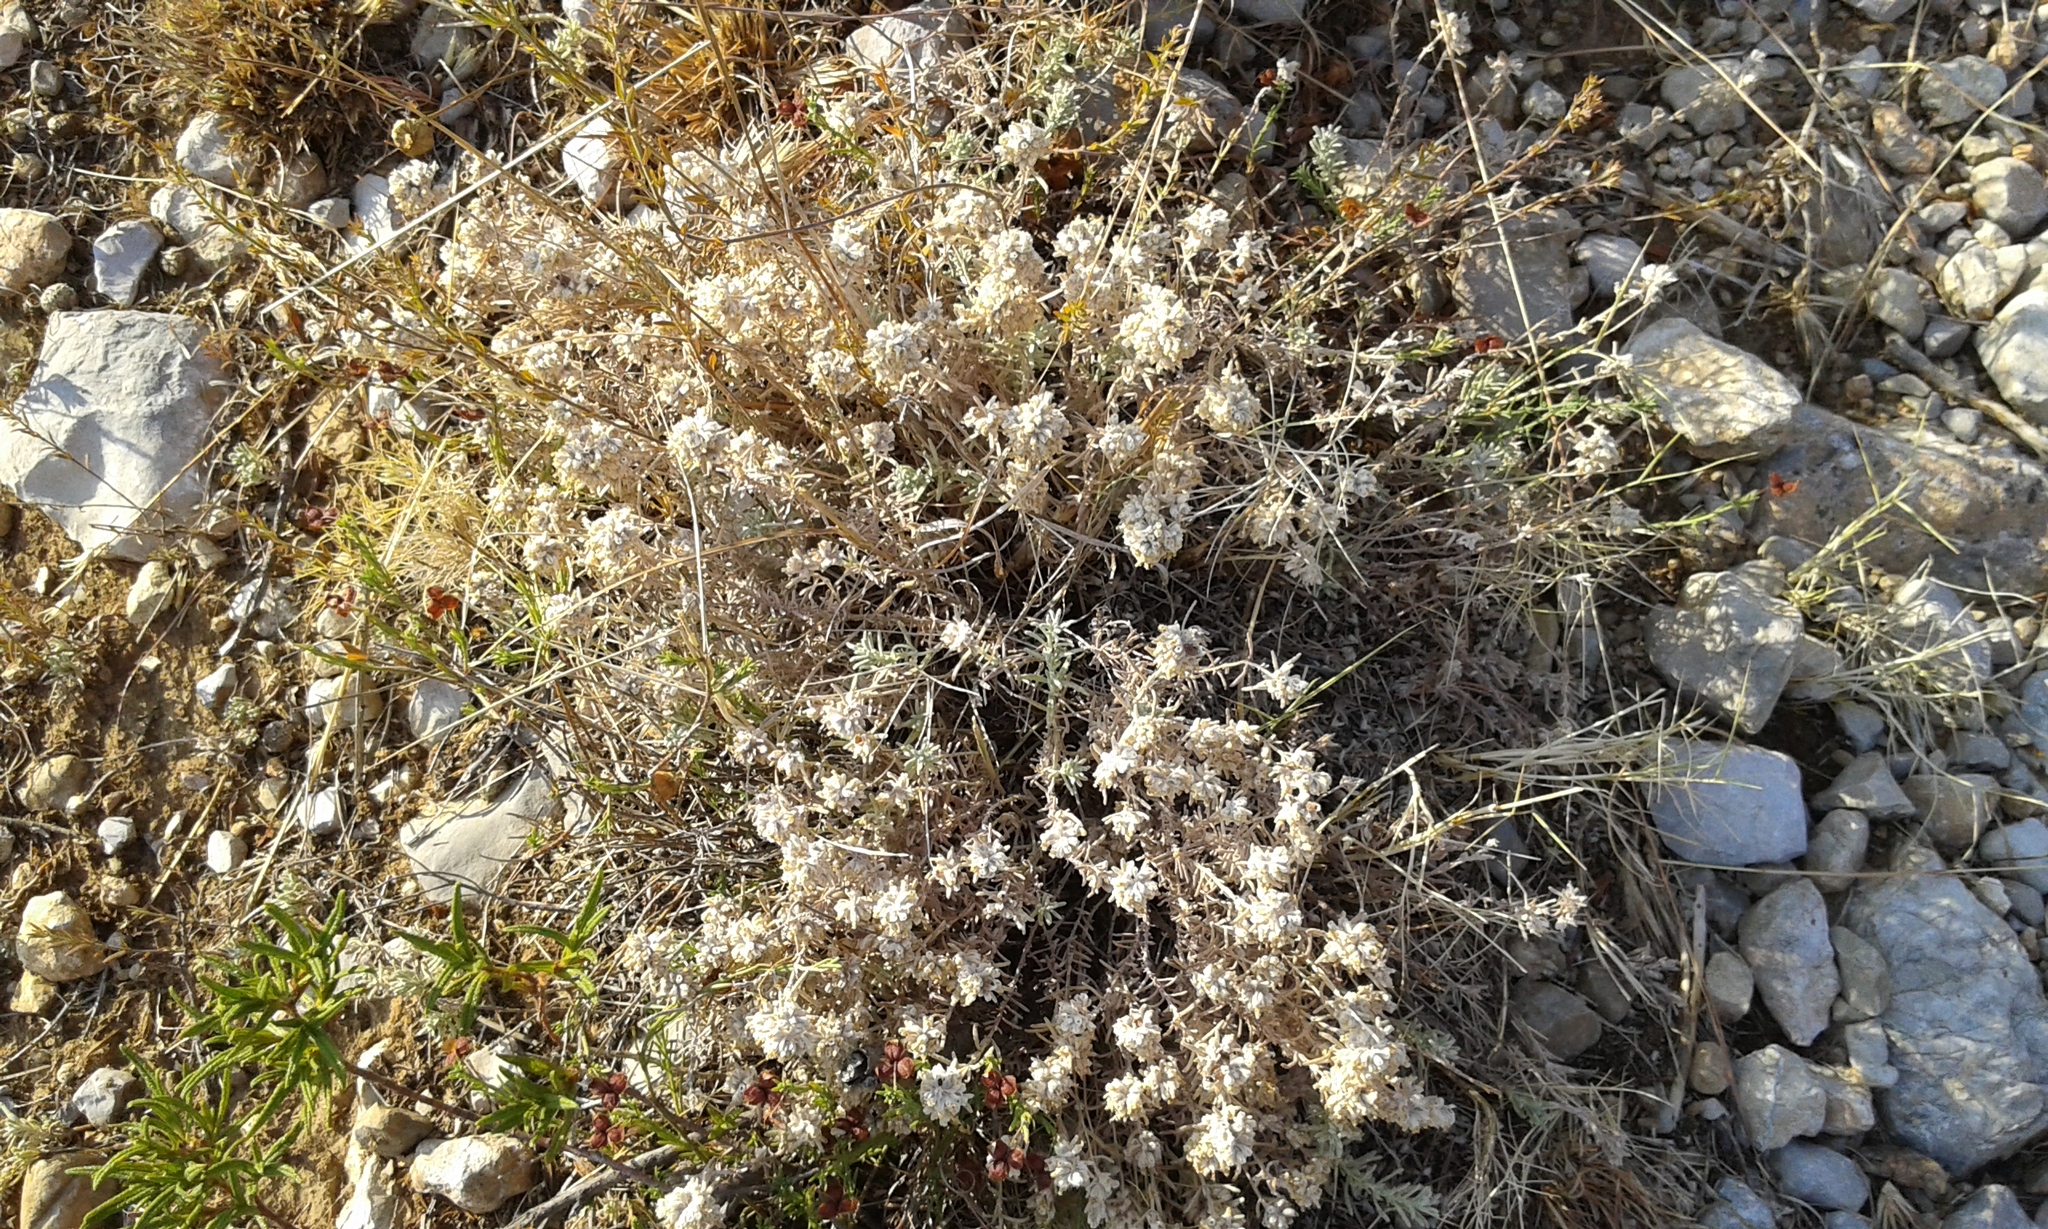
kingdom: Plantae
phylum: Tracheophyta
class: Magnoliopsida
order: Lamiales
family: Lamiaceae
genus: Teucrium
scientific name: Teucrium capitatum
